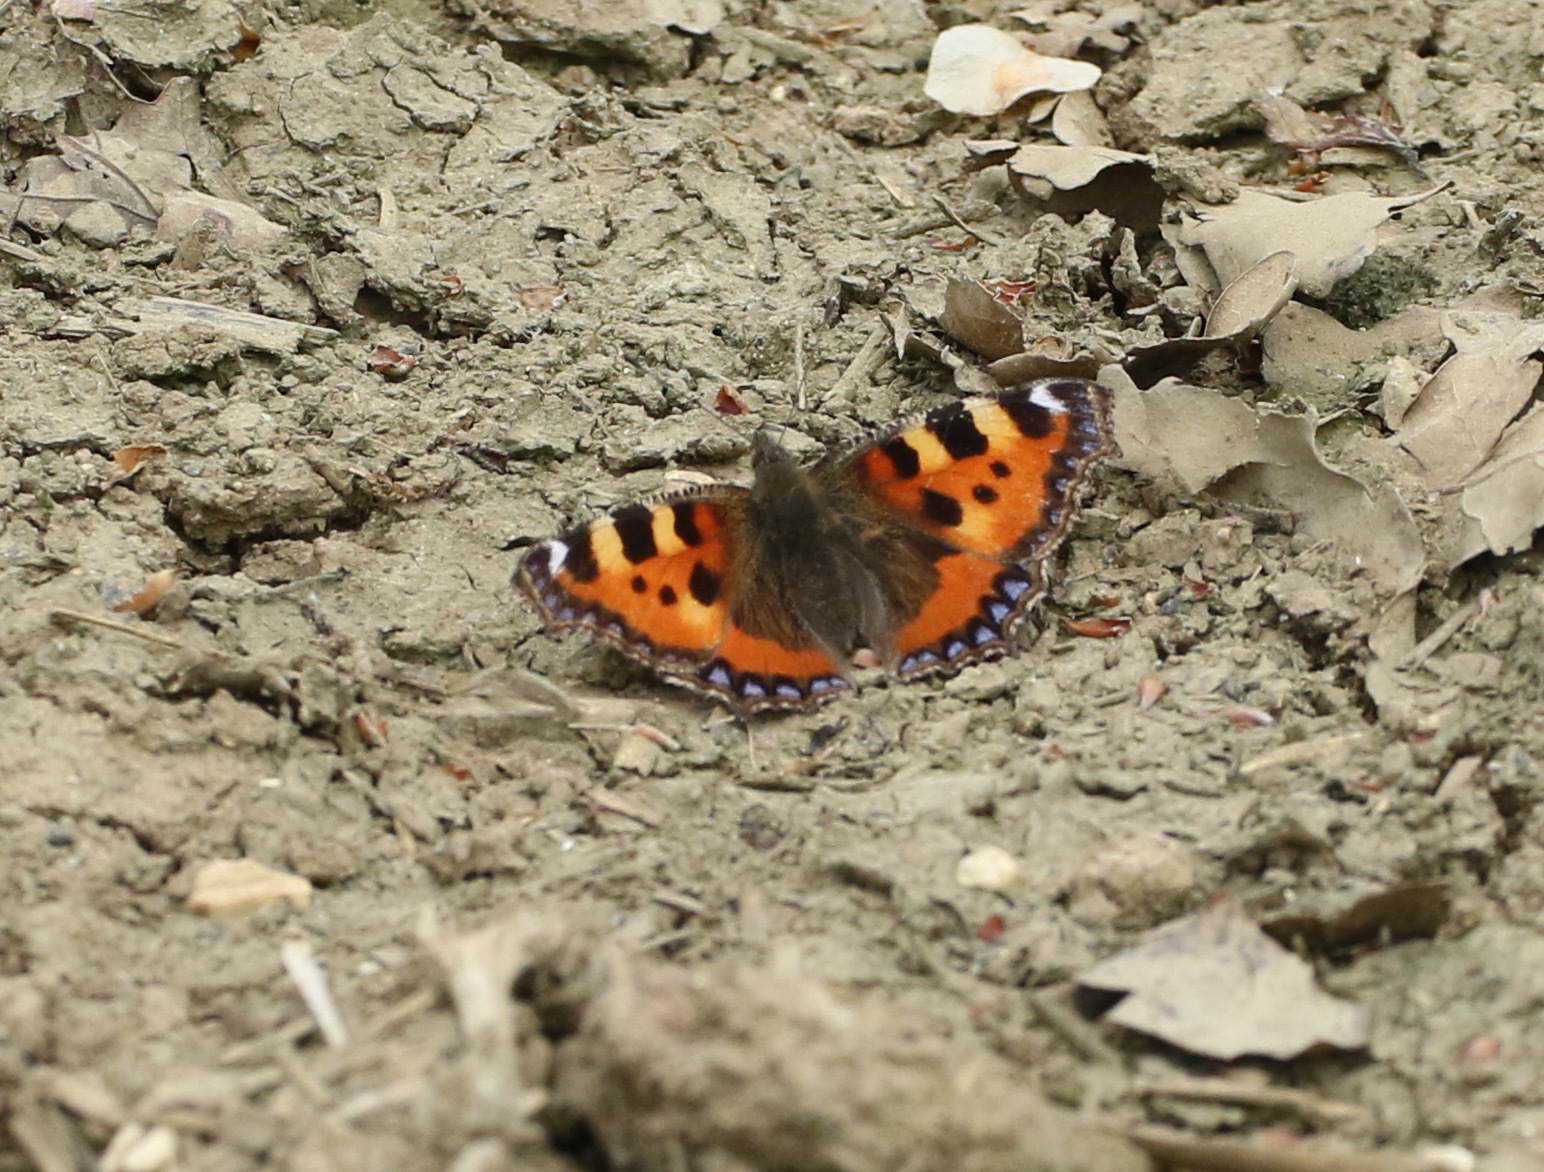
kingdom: Animalia
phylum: Arthropoda
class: Insecta
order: Lepidoptera
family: Nymphalidae
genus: Aglais
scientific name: Aglais urticae
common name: Small tortoiseshell
